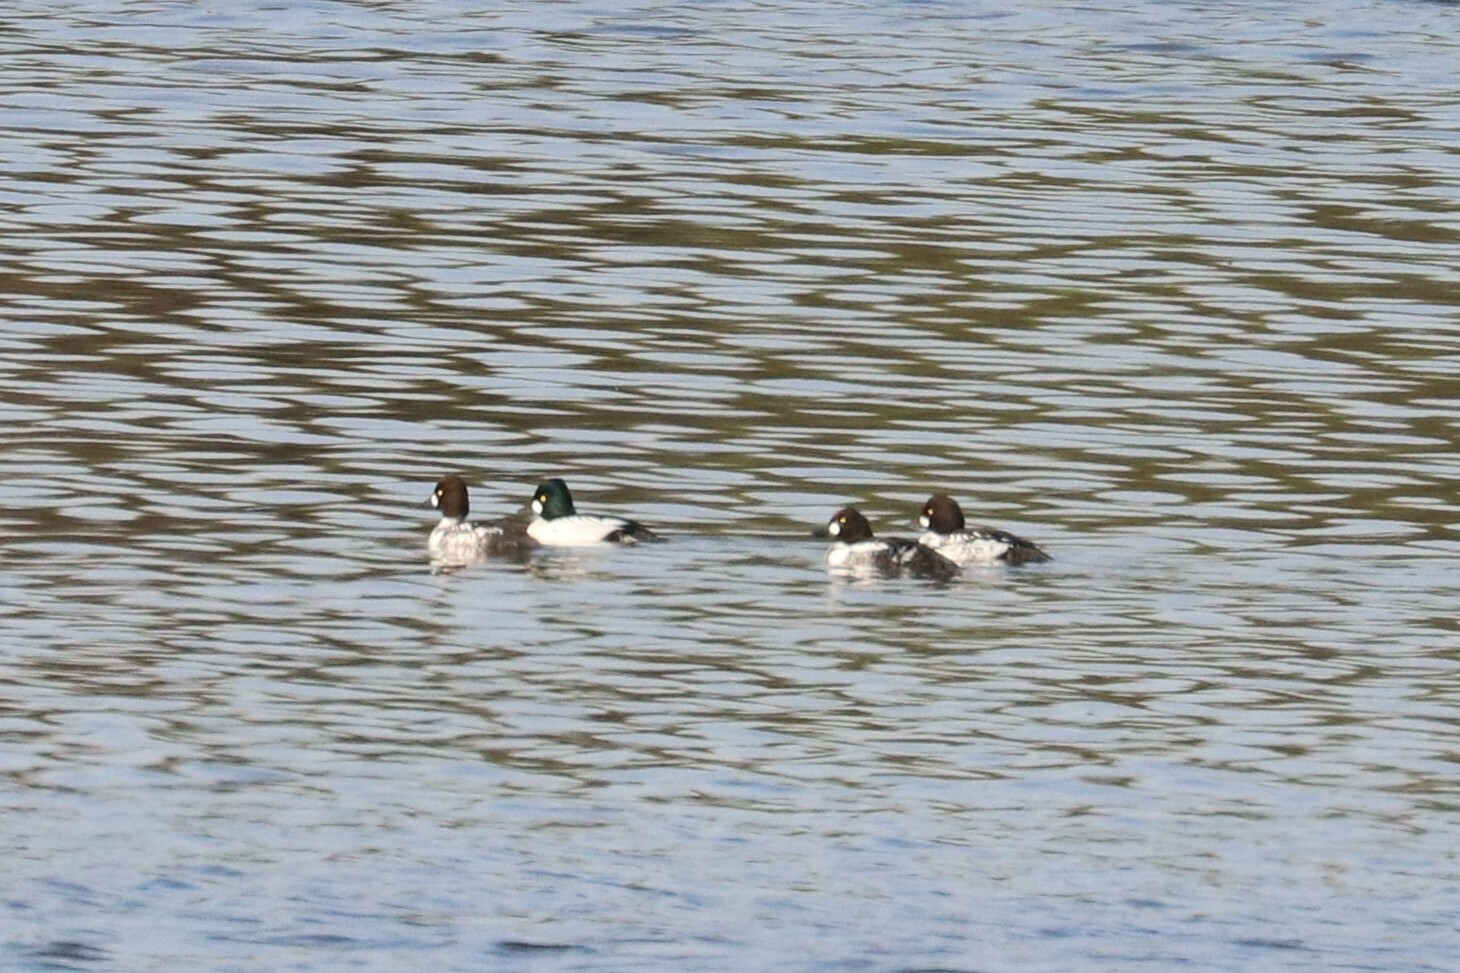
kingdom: Animalia
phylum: Chordata
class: Aves
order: Anseriformes
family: Anatidae
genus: Bucephala
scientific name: Bucephala clangula
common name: Common goldeneye
